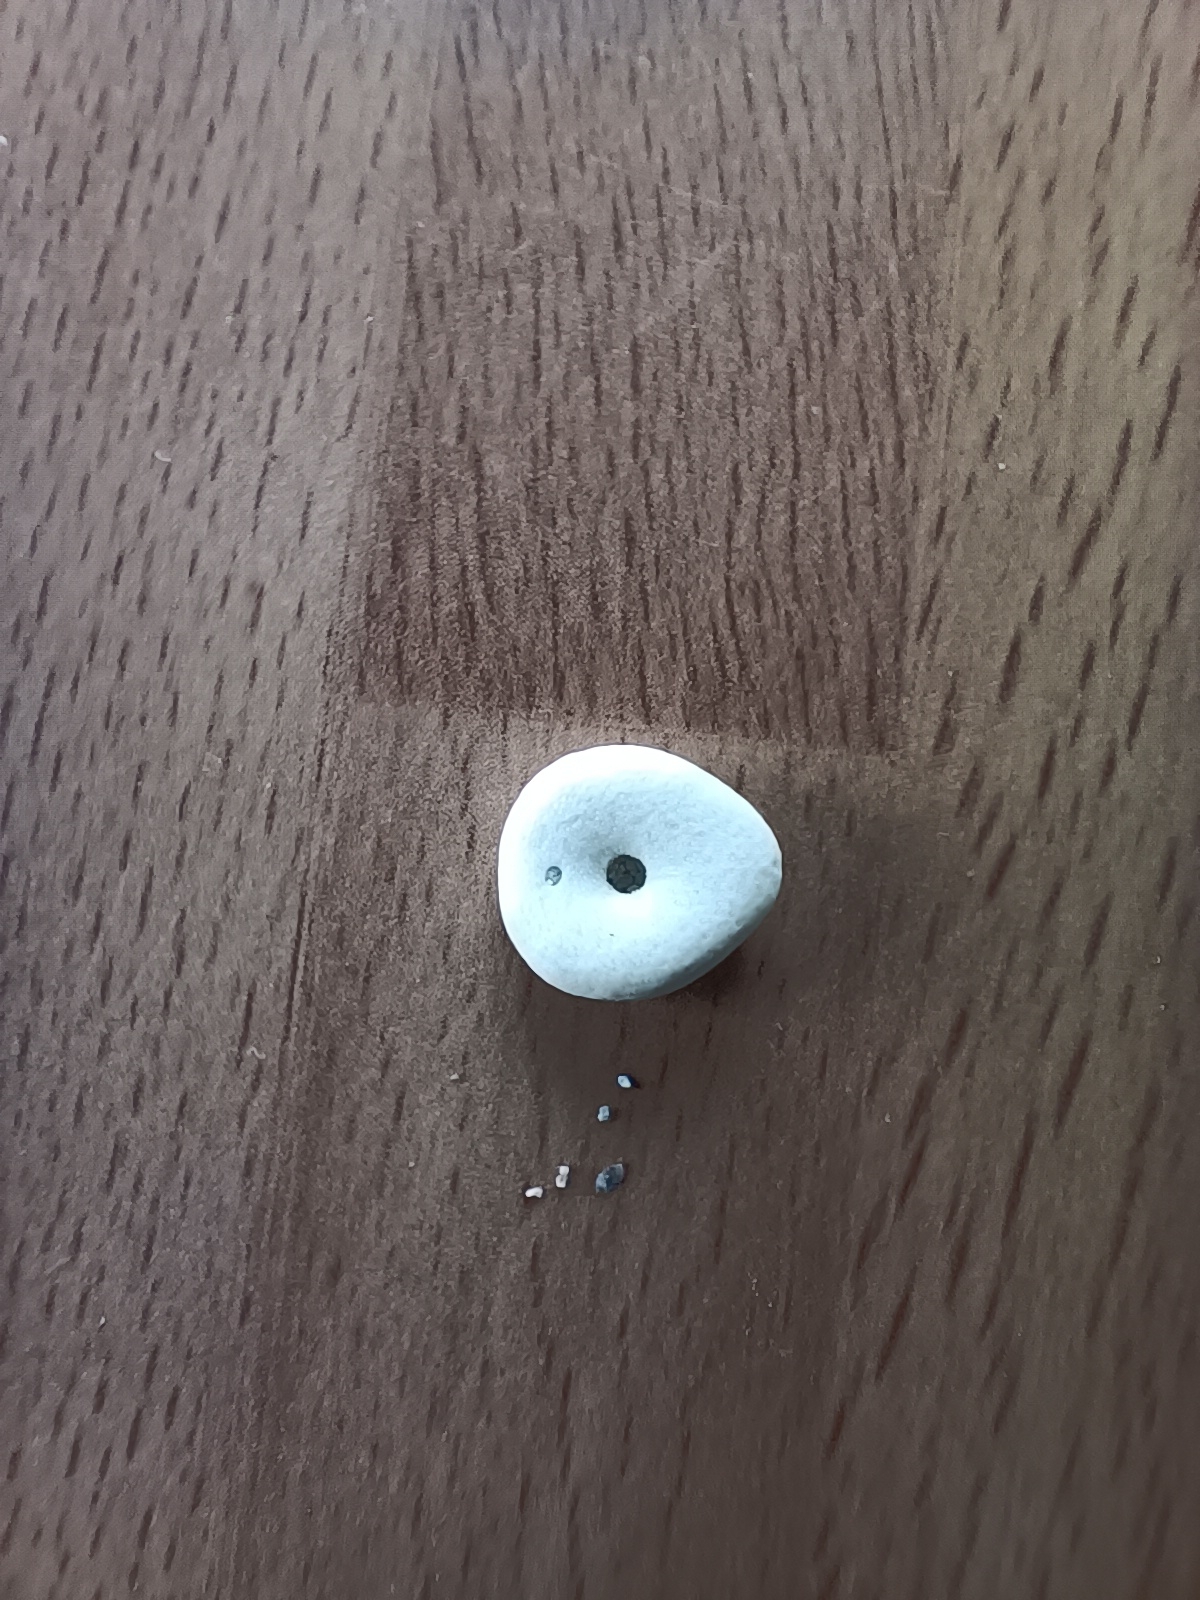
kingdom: Animalia
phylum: Echinodermata
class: Echinoidea
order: Echinolampadacea
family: Fibulariidae
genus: Echinocyamus
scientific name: Echinocyamus pusillus
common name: Broad beau of sea
